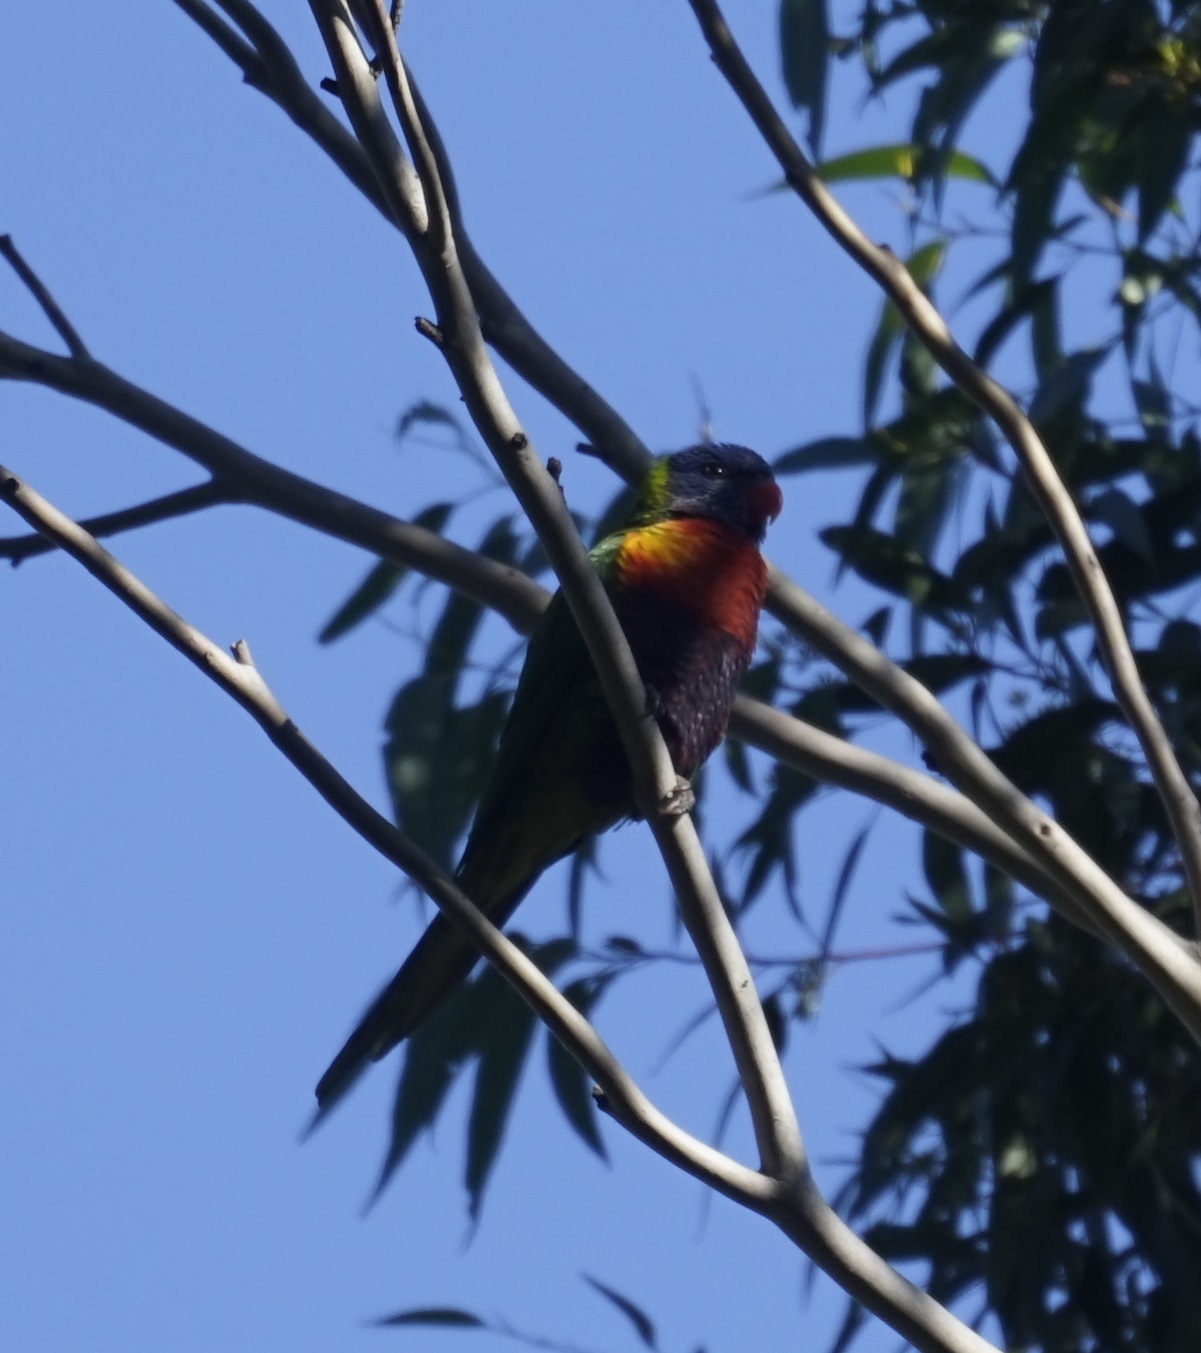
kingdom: Animalia
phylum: Chordata
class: Aves
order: Psittaciformes
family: Psittacidae
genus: Trichoglossus
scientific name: Trichoglossus haematodus
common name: Coconut lorikeet
